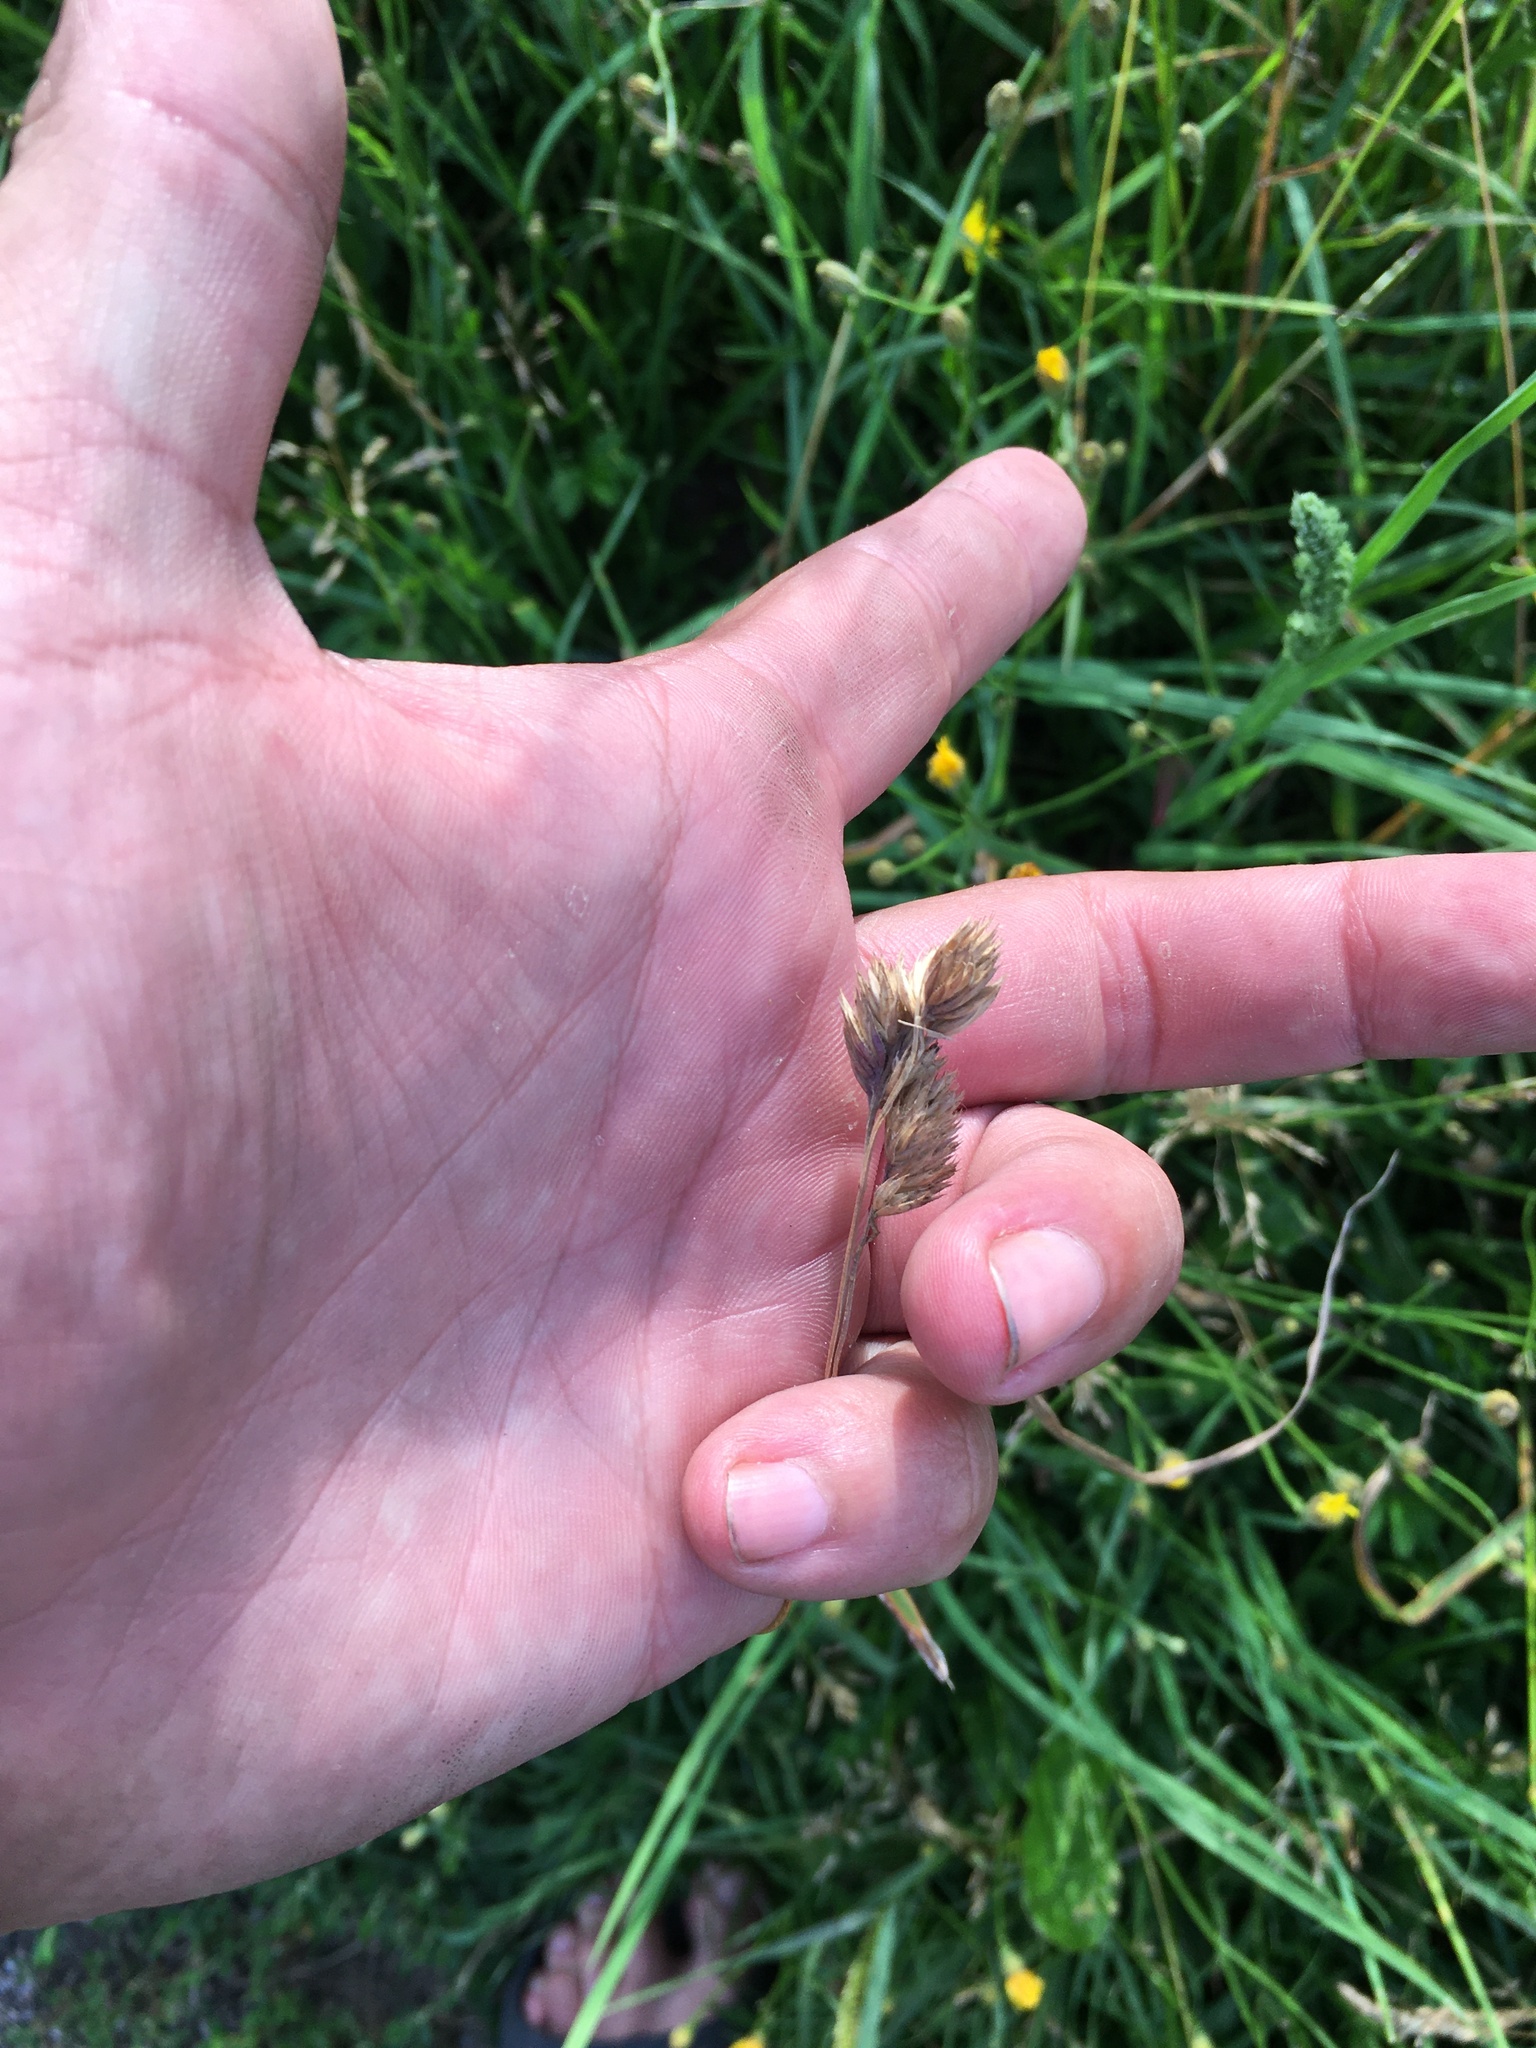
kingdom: Plantae
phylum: Tracheophyta
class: Liliopsida
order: Poales
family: Poaceae
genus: Dactylis
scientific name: Dactylis glomerata
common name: Orchardgrass
